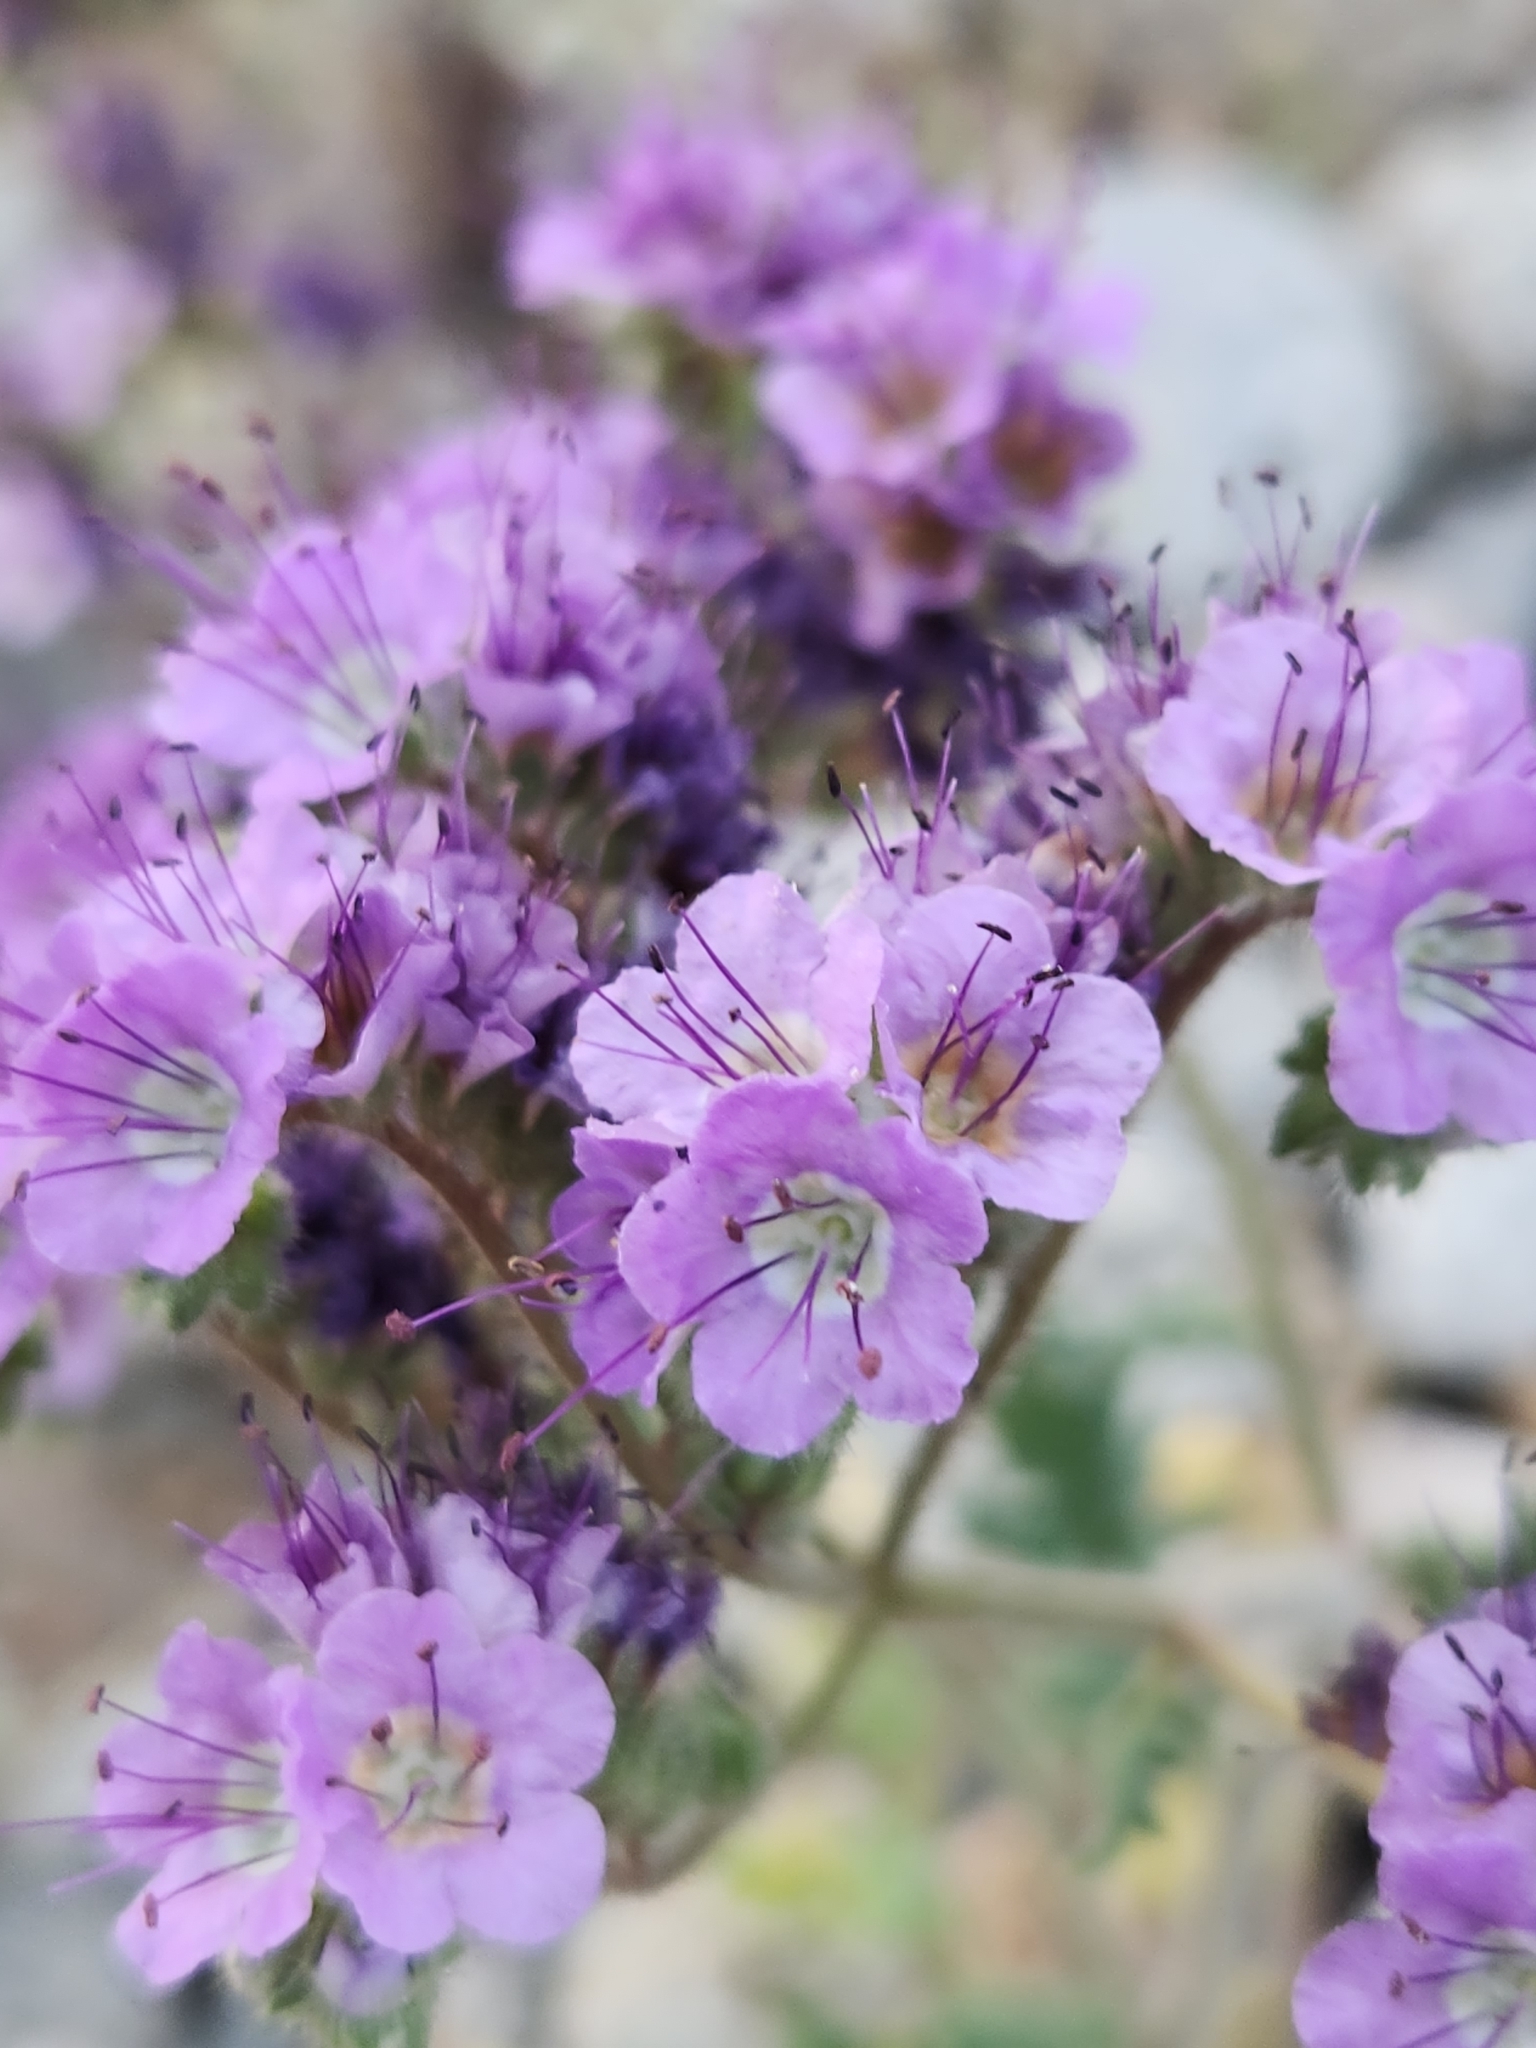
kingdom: Plantae
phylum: Tracheophyta
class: Magnoliopsida
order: Boraginales
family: Hydrophyllaceae
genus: Phacelia
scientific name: Phacelia crenulata
